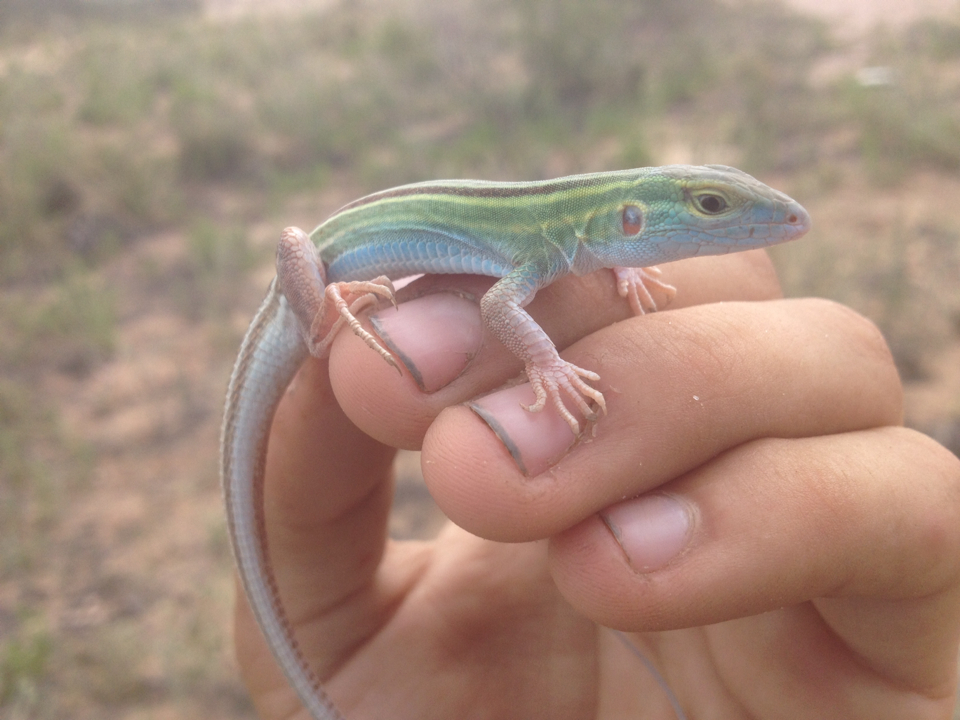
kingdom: Animalia
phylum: Chordata
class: Squamata
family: Teiidae
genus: Aspidoscelis
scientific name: Aspidoscelis sexlineatus
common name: Six-lined racerunner
